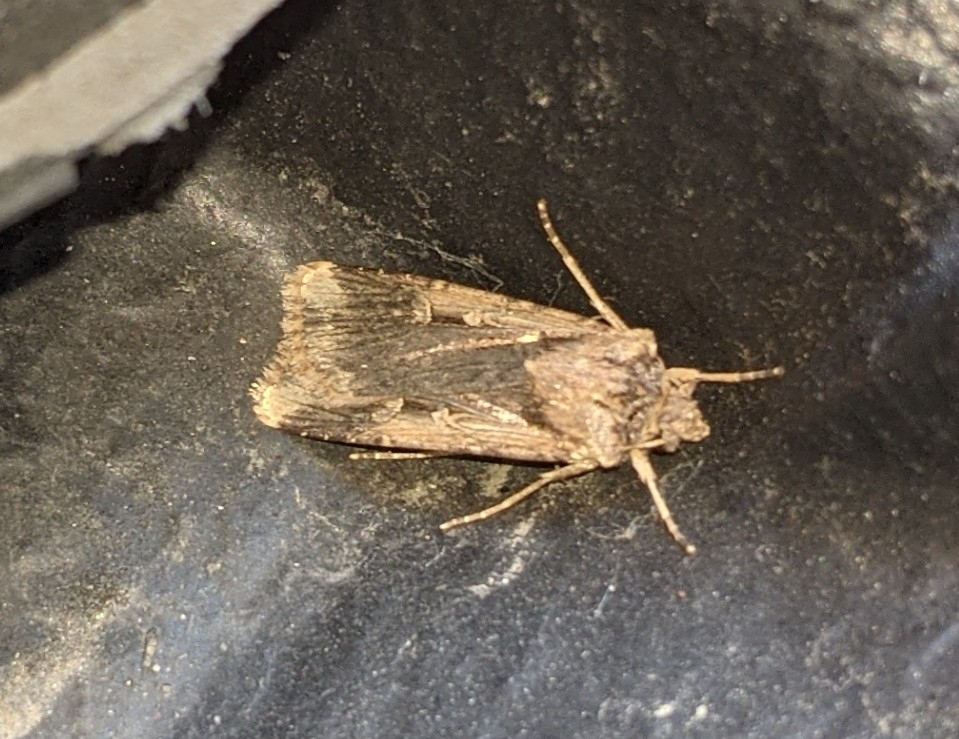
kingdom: Animalia
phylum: Arthropoda
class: Insecta
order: Lepidoptera
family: Noctuidae
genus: Feltia
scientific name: Feltia subterranea
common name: Granulate cutworm
